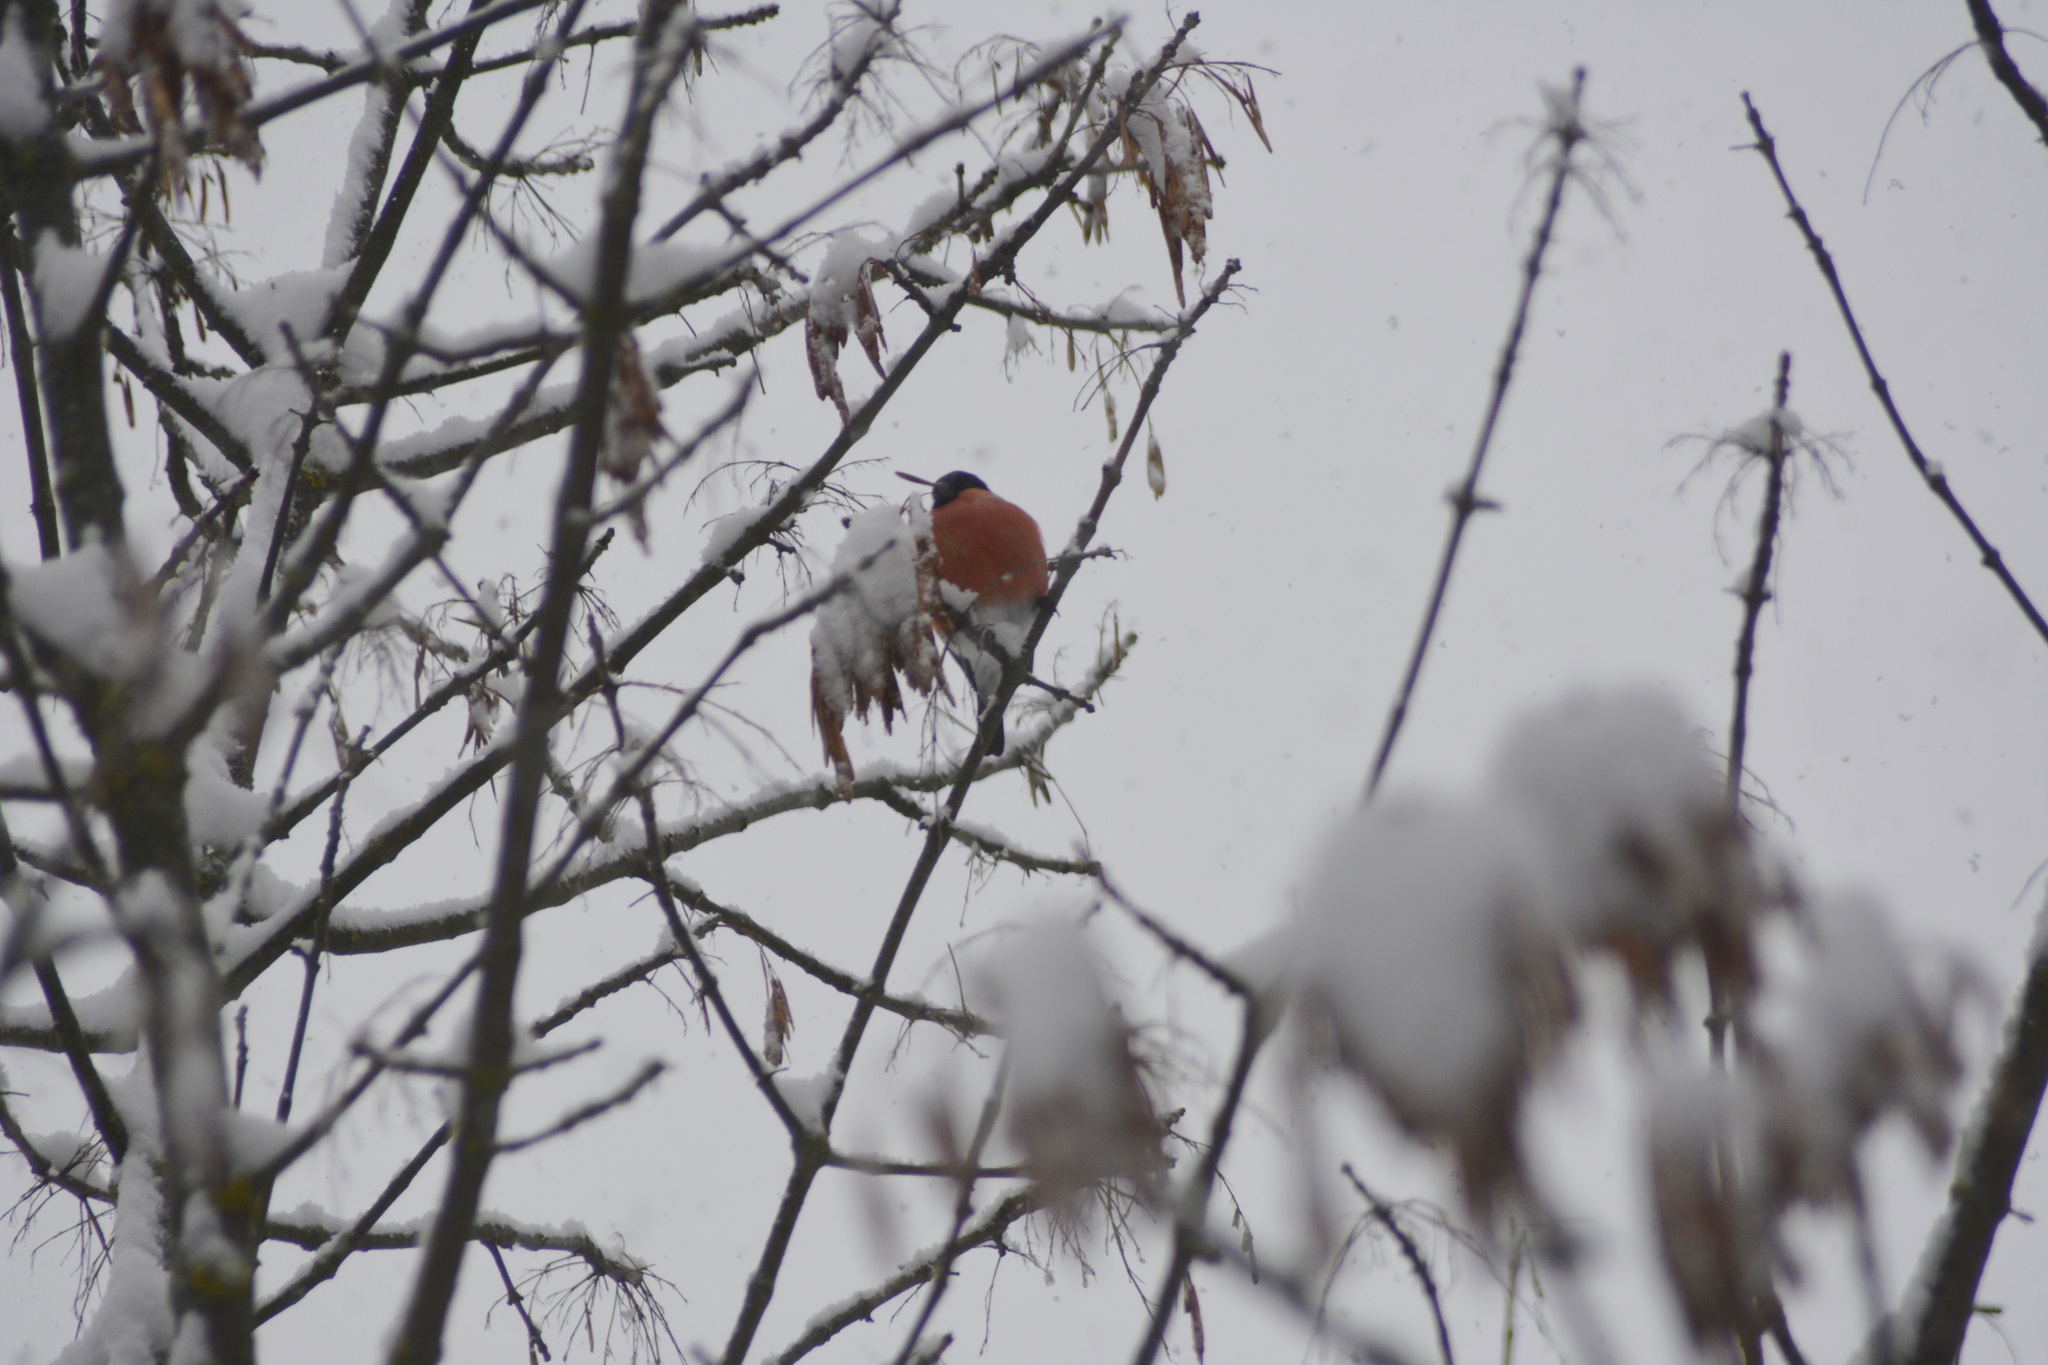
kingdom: Animalia
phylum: Chordata
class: Aves
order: Passeriformes
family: Fringillidae
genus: Pyrrhula
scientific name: Pyrrhula pyrrhula
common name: Eurasian bullfinch
